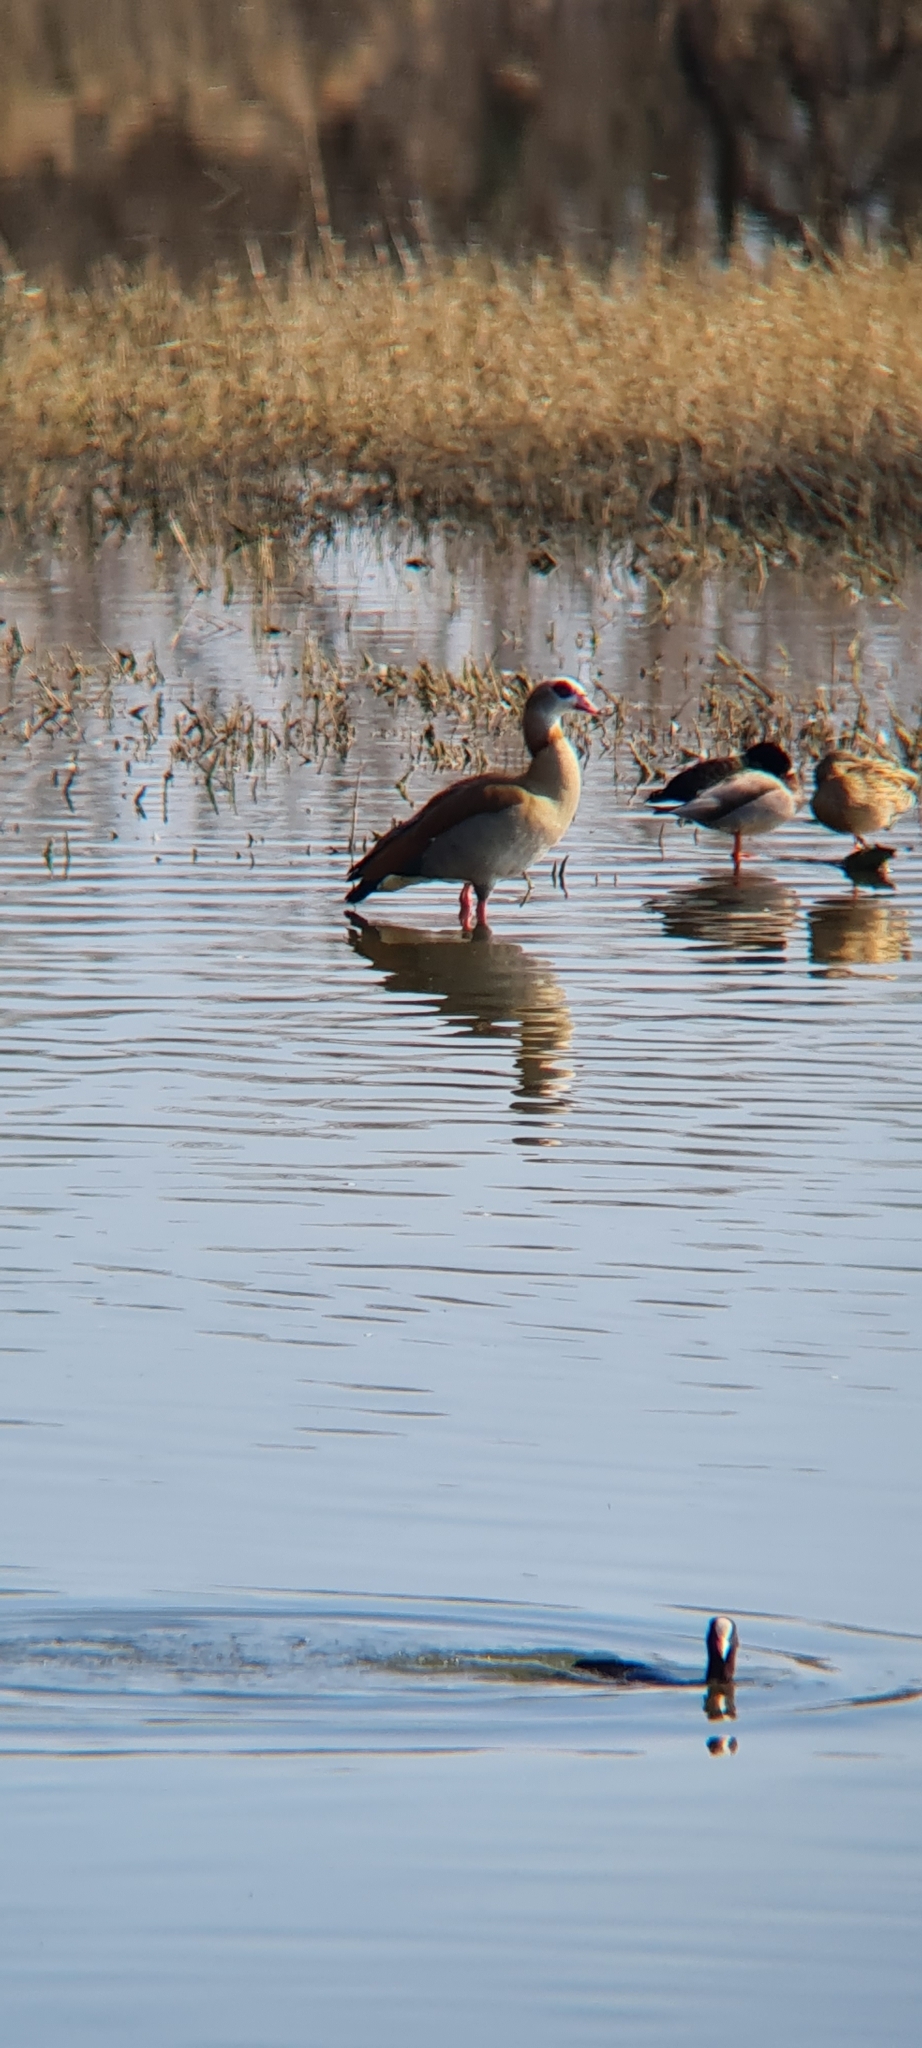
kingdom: Animalia
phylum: Chordata
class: Aves
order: Anseriformes
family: Anatidae
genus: Alopochen
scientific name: Alopochen aegyptiaca
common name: Egyptian goose
